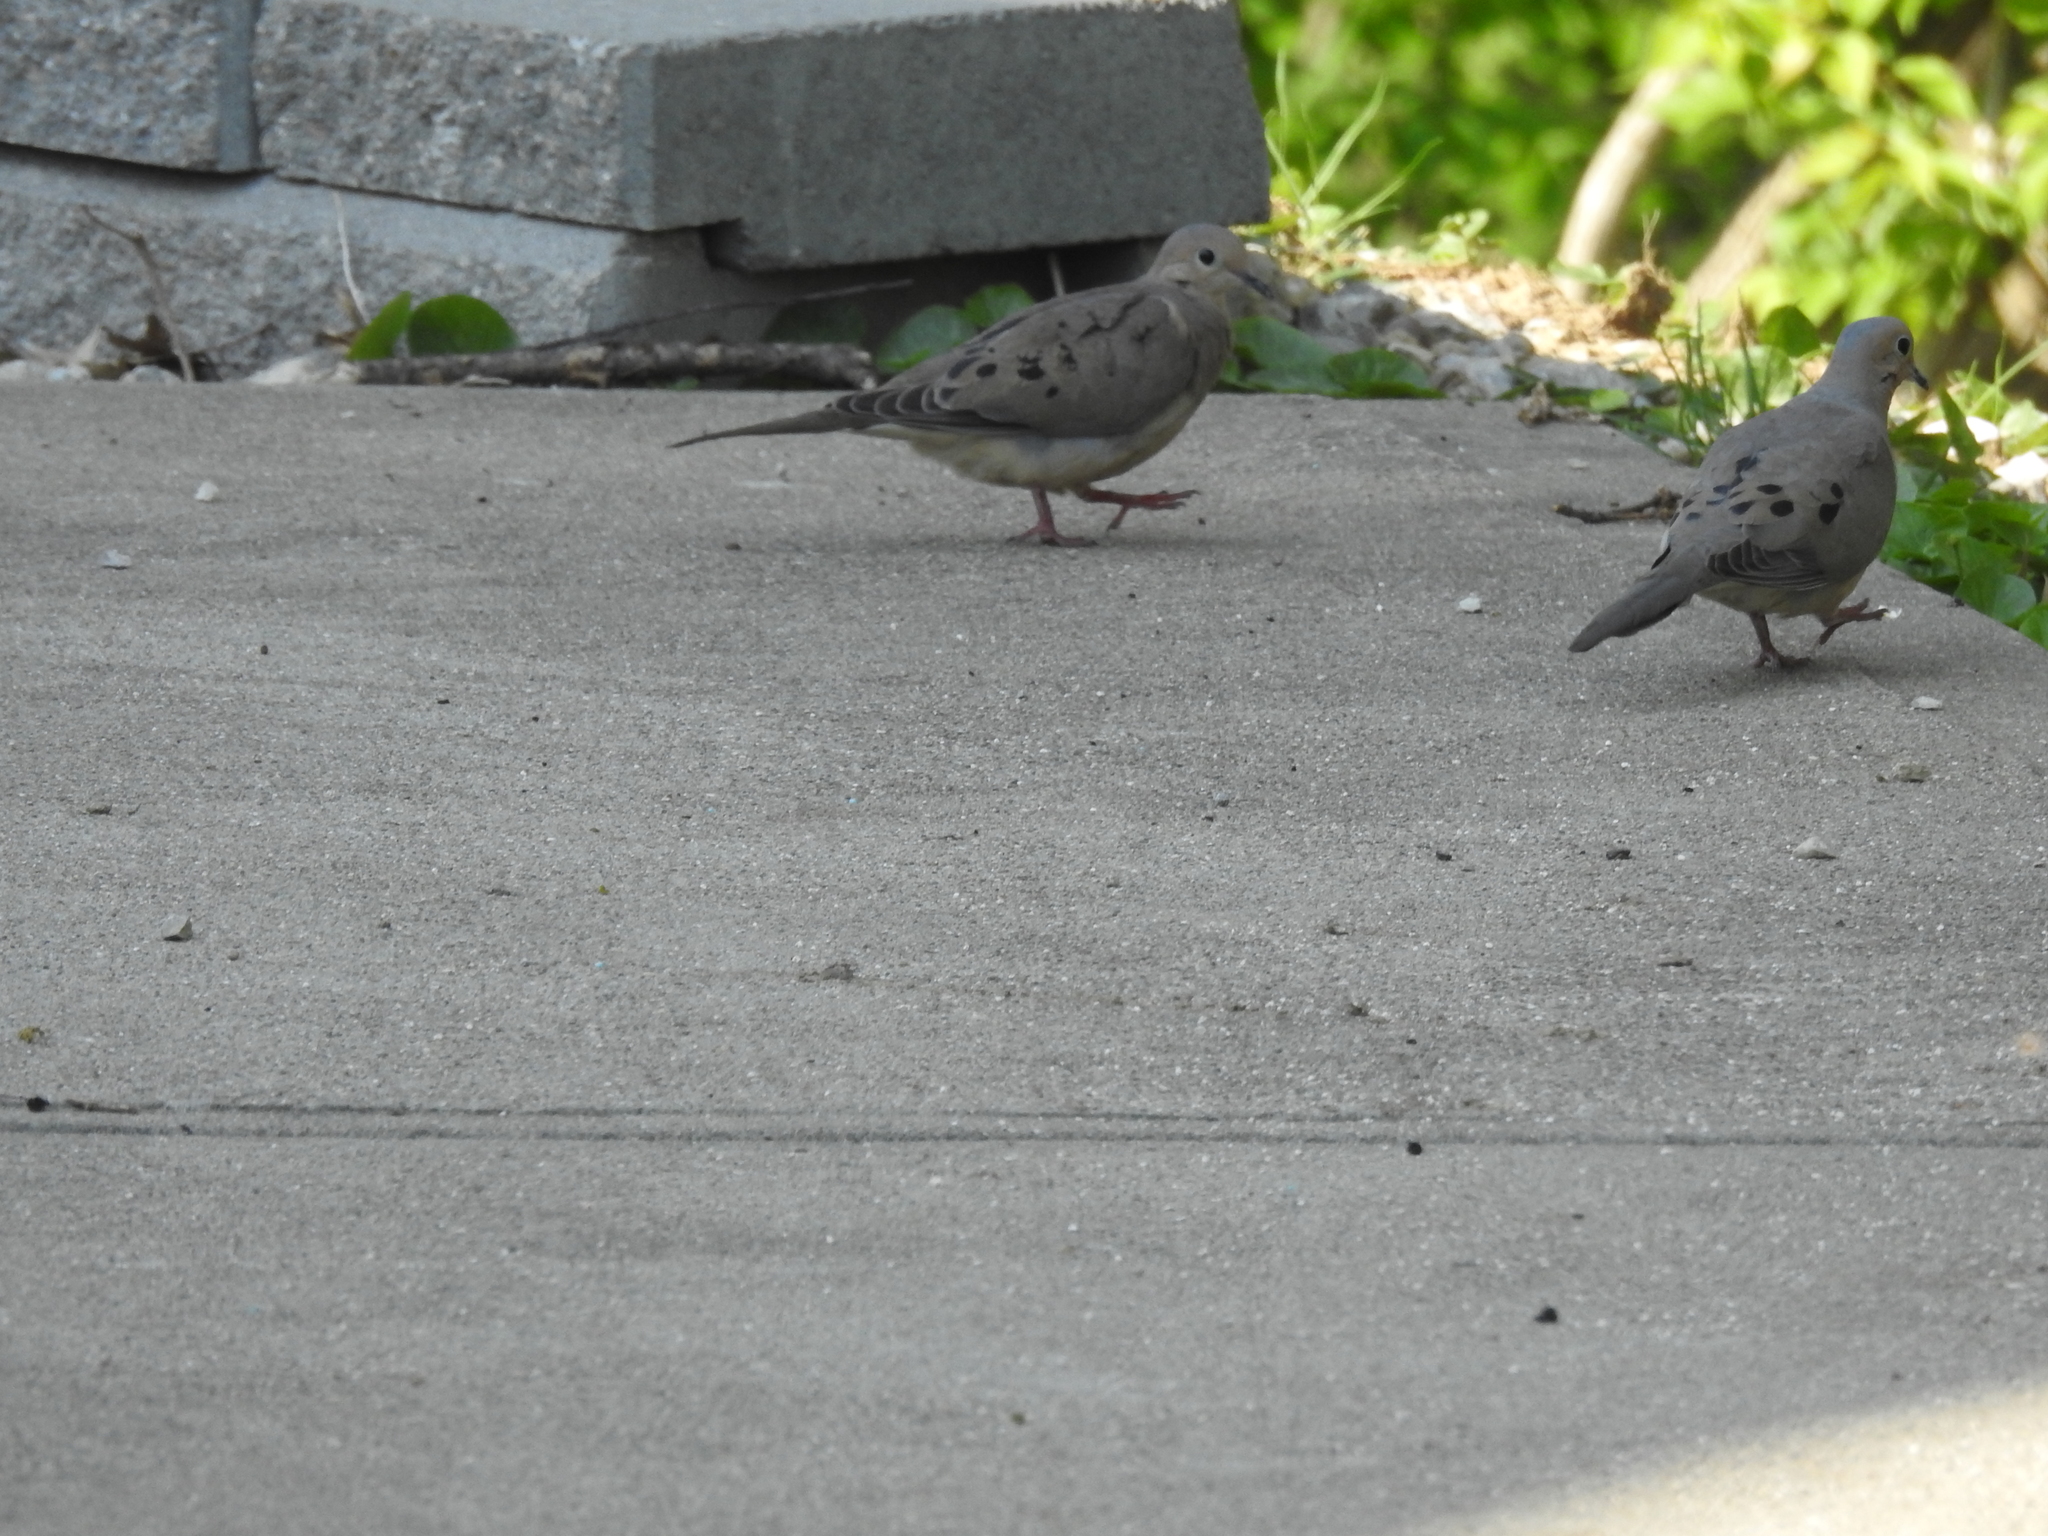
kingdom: Animalia
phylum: Chordata
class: Aves
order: Columbiformes
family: Columbidae
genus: Zenaida
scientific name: Zenaida macroura
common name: Mourning dove
